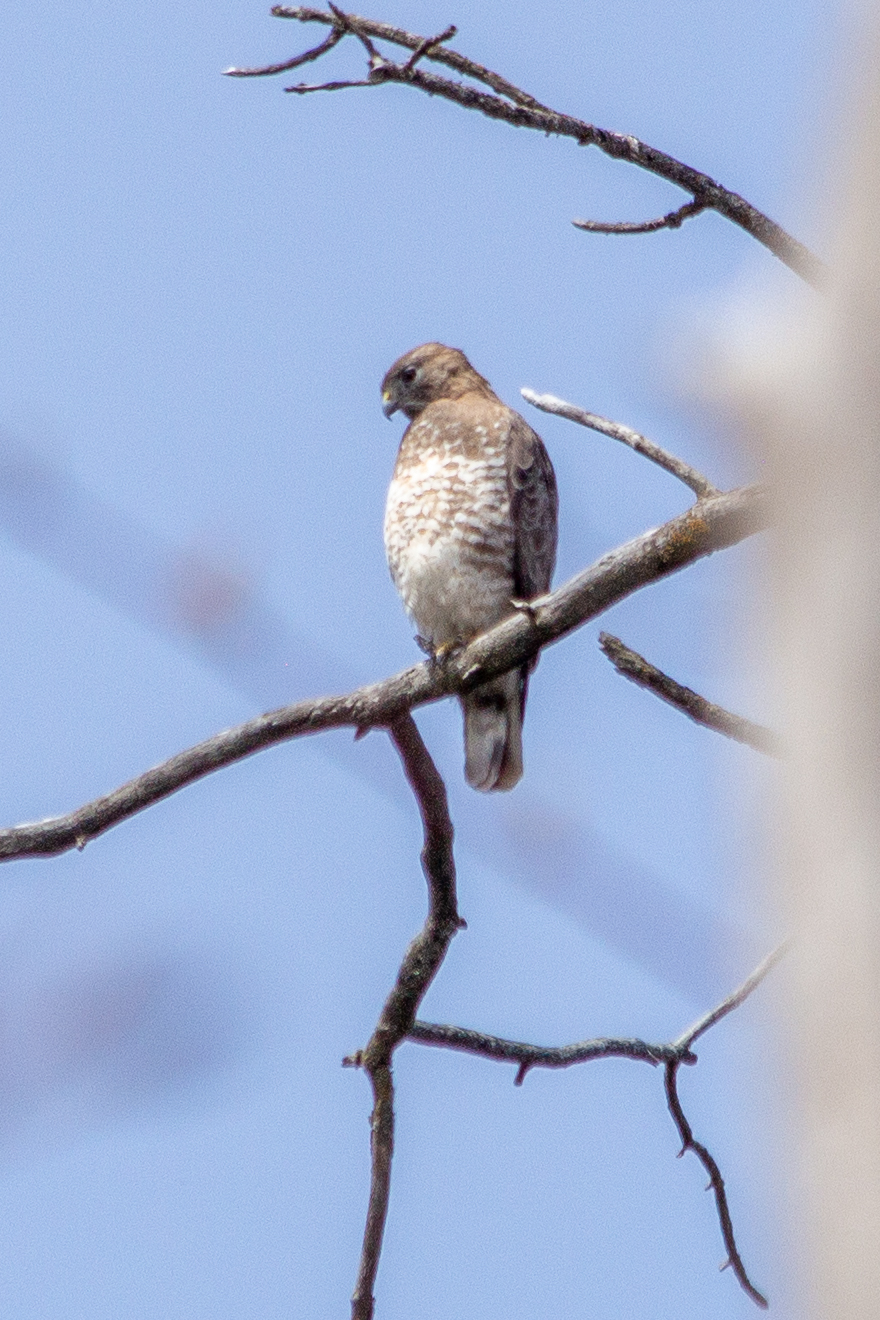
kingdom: Animalia
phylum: Chordata
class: Aves
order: Accipitriformes
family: Accipitridae
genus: Buteo
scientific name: Buteo platypterus
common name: Broad-winged hawk
